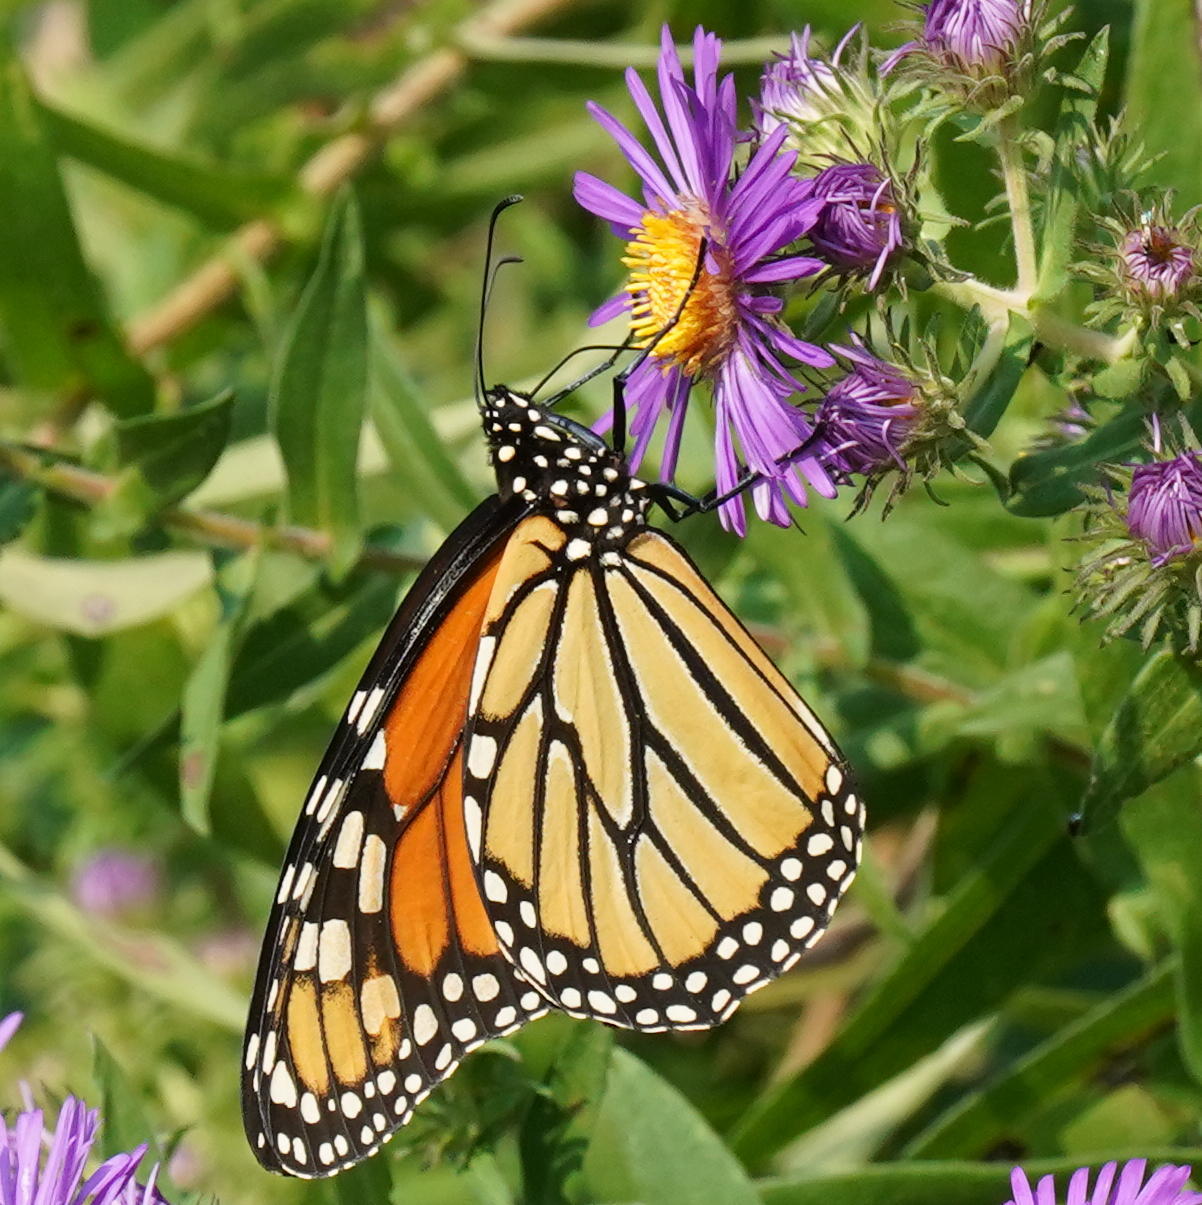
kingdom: Animalia
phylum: Arthropoda
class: Insecta
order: Lepidoptera
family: Nymphalidae
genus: Danaus
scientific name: Danaus plexippus
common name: Monarch
